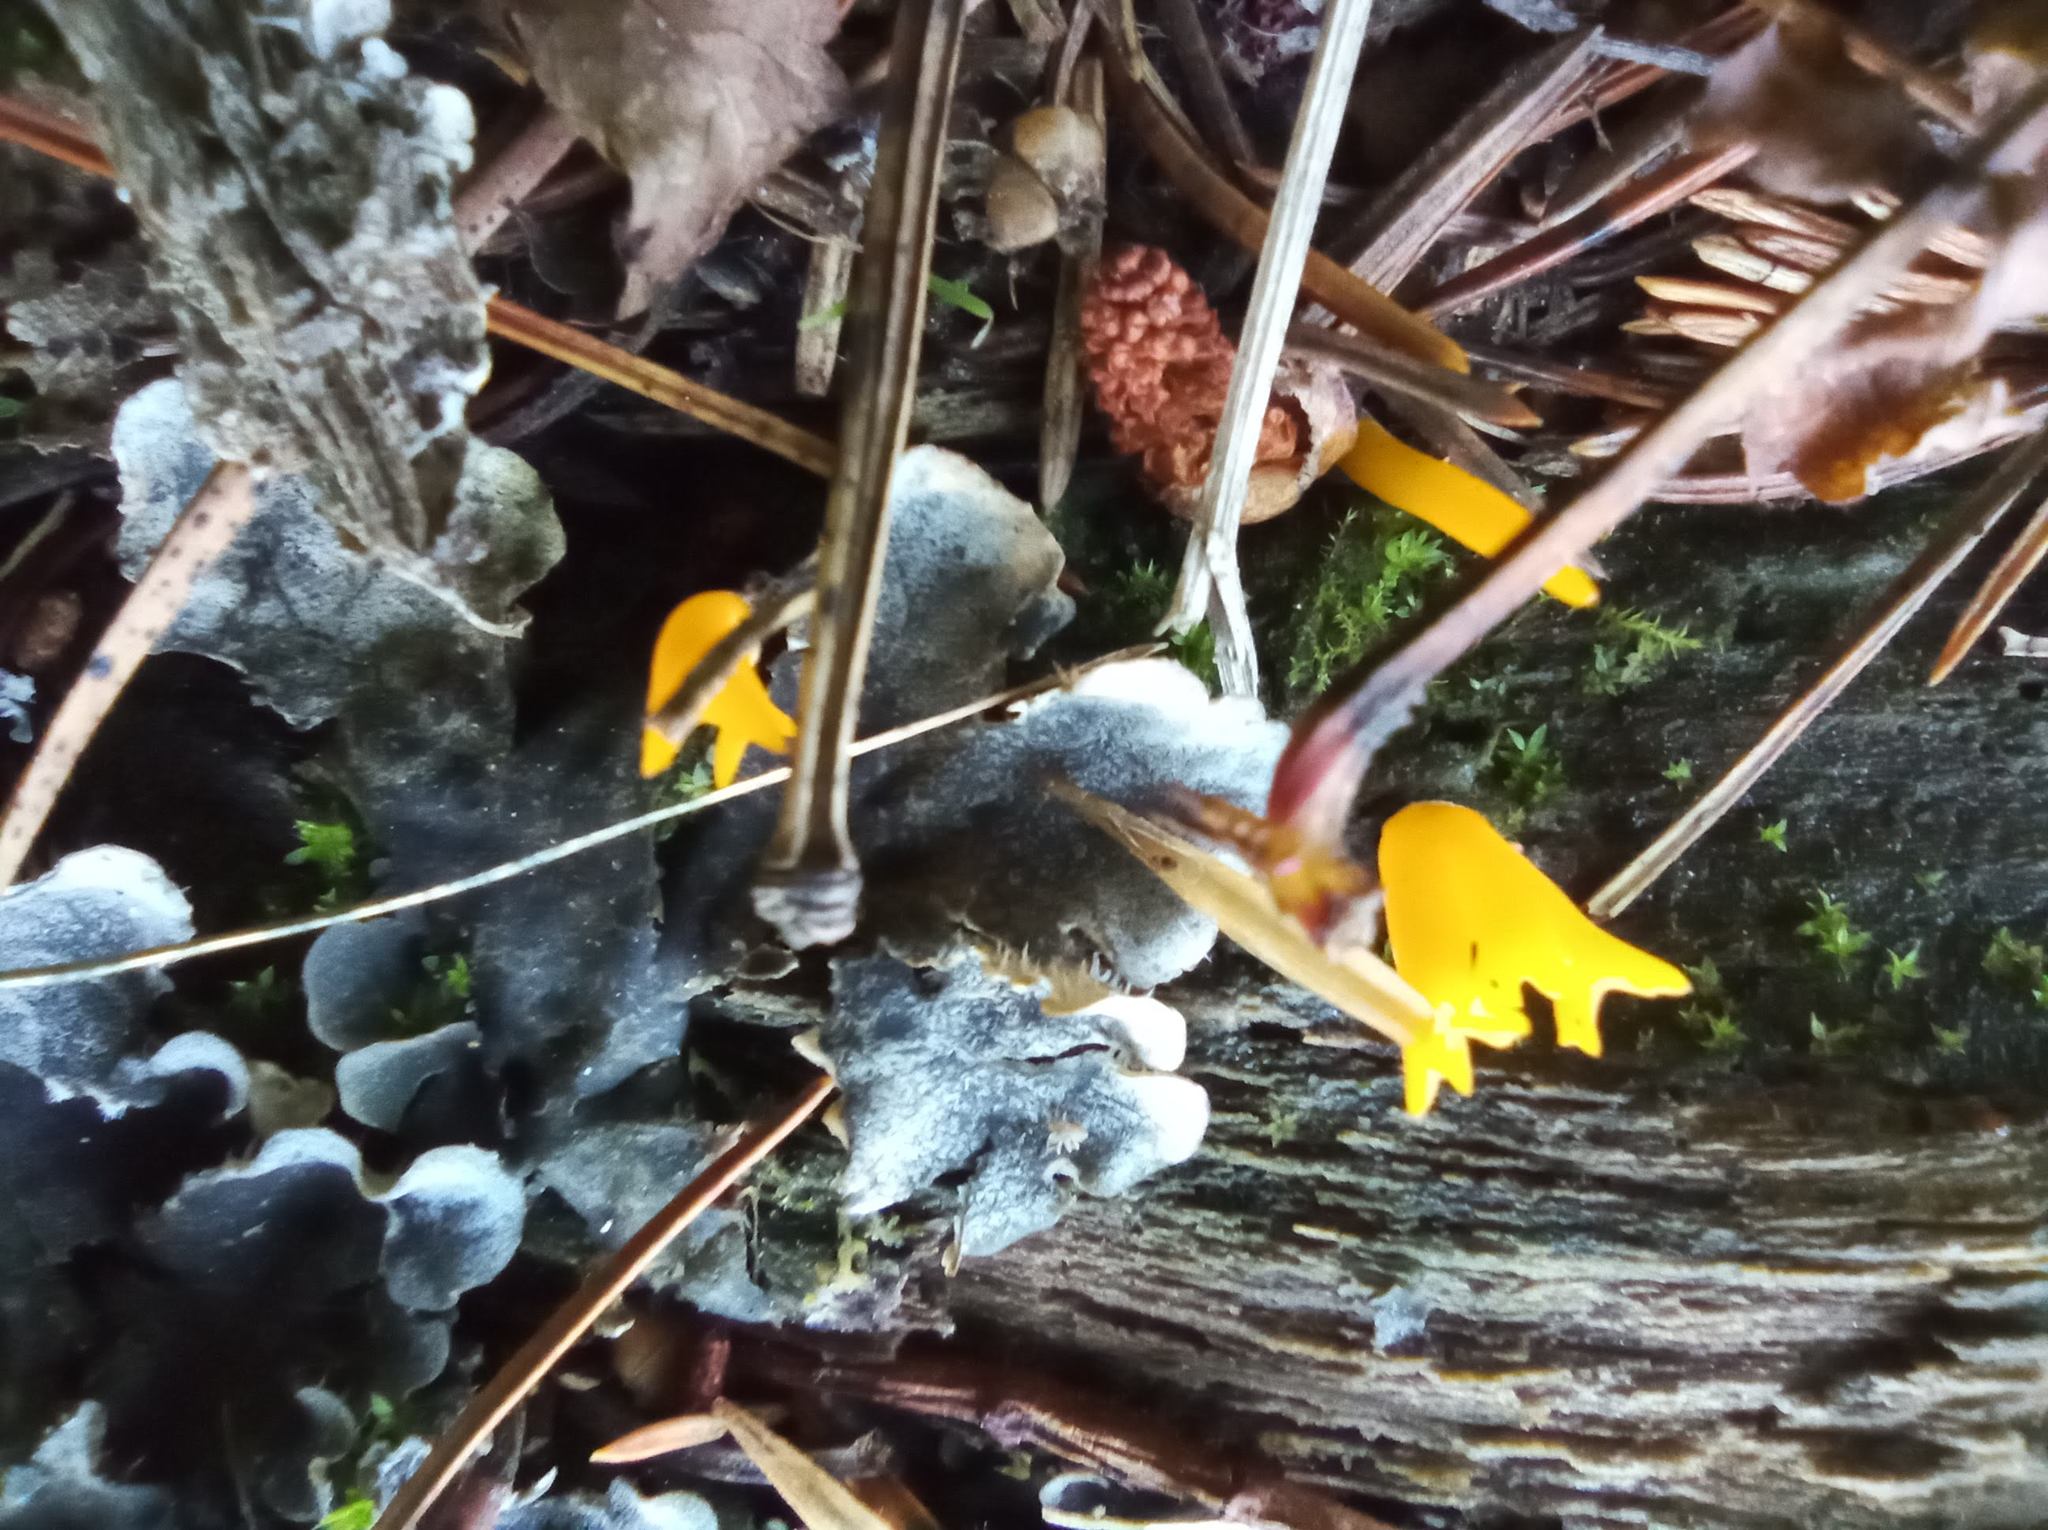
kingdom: Fungi
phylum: Basidiomycota
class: Dacrymycetes
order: Dacrymycetales
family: Dacrymycetaceae
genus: Calocera
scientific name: Calocera viscosa
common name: Yellow stagshorn
